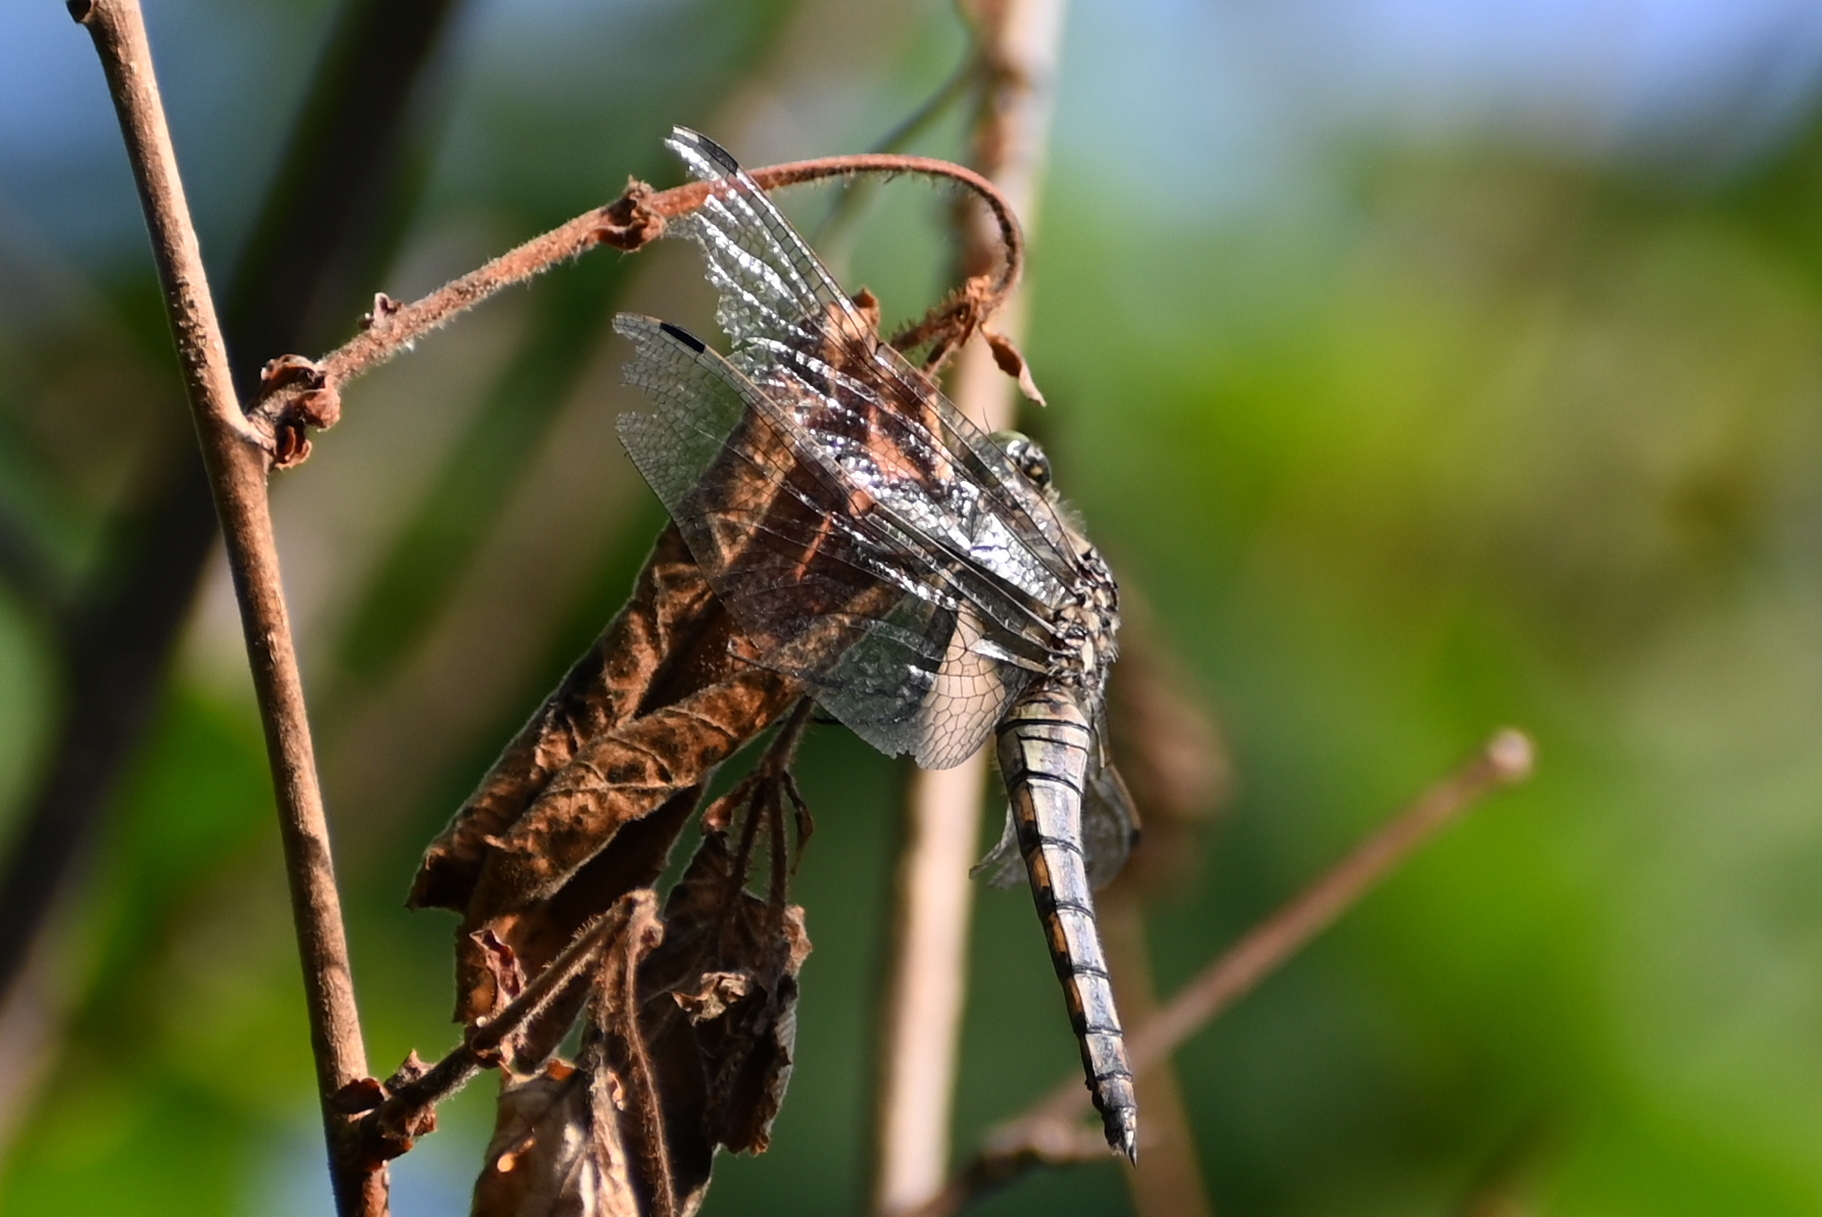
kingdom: Animalia
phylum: Arthropoda
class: Insecta
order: Odonata
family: Libellulidae
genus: Orthetrum
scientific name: Orthetrum cancellatum
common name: Black-tailed skimmer
